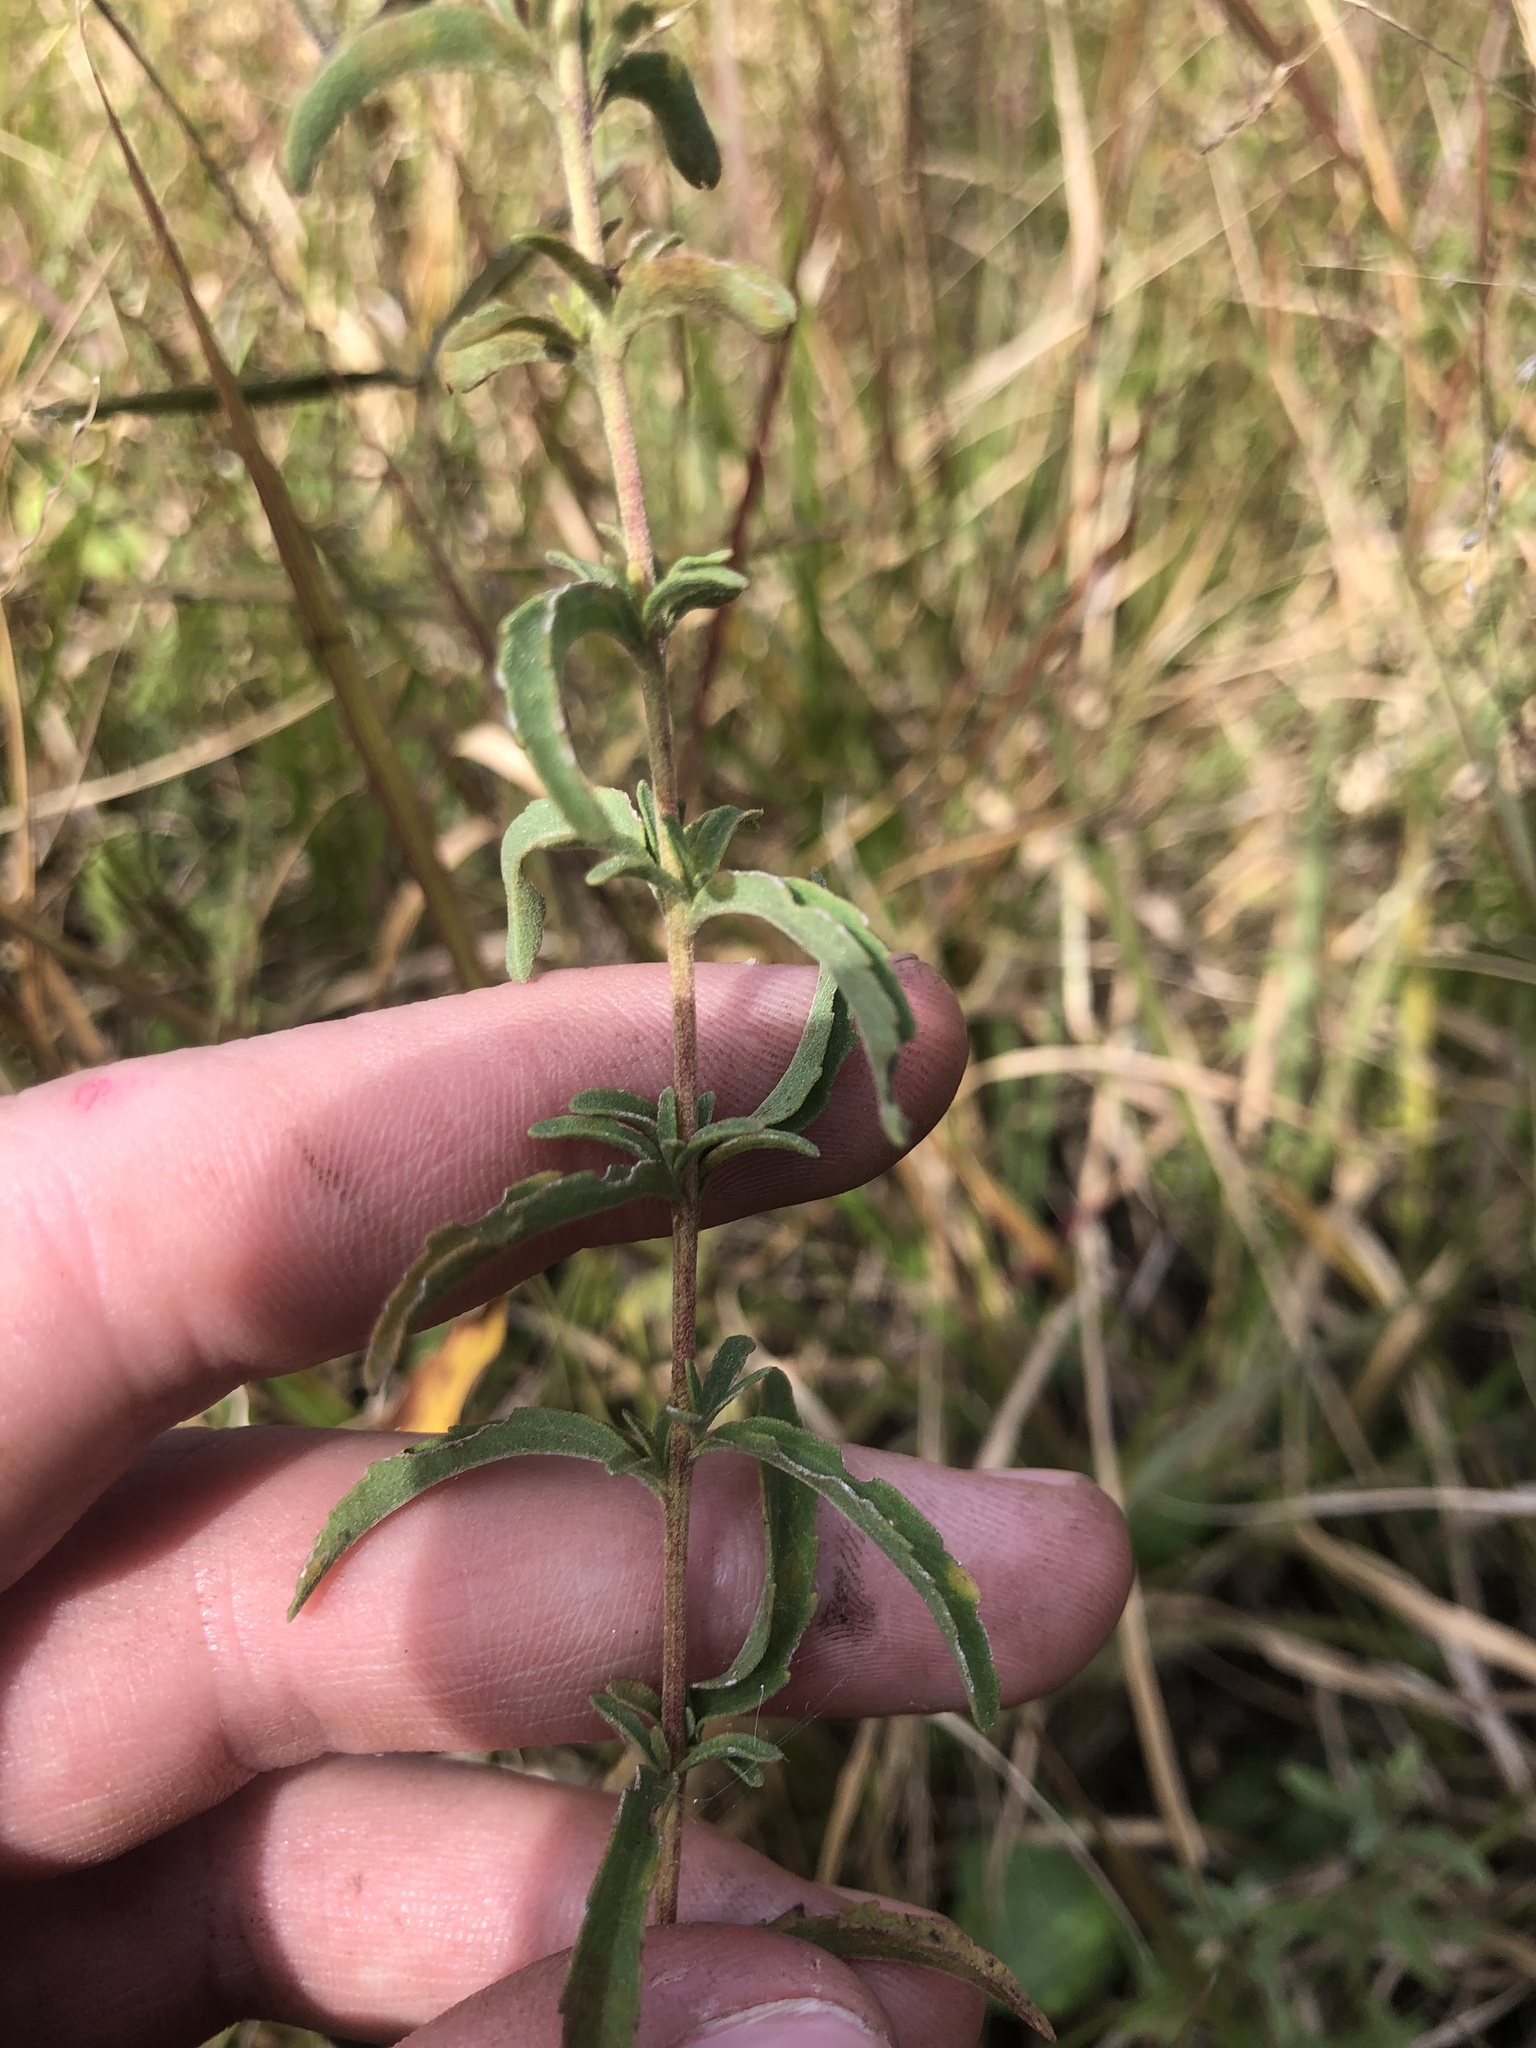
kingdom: Plantae
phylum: Tracheophyta
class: Magnoliopsida
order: Asterales
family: Asteraceae
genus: Eupatorium
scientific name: Eupatorium mohrii
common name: Mohr's thoroughwort
